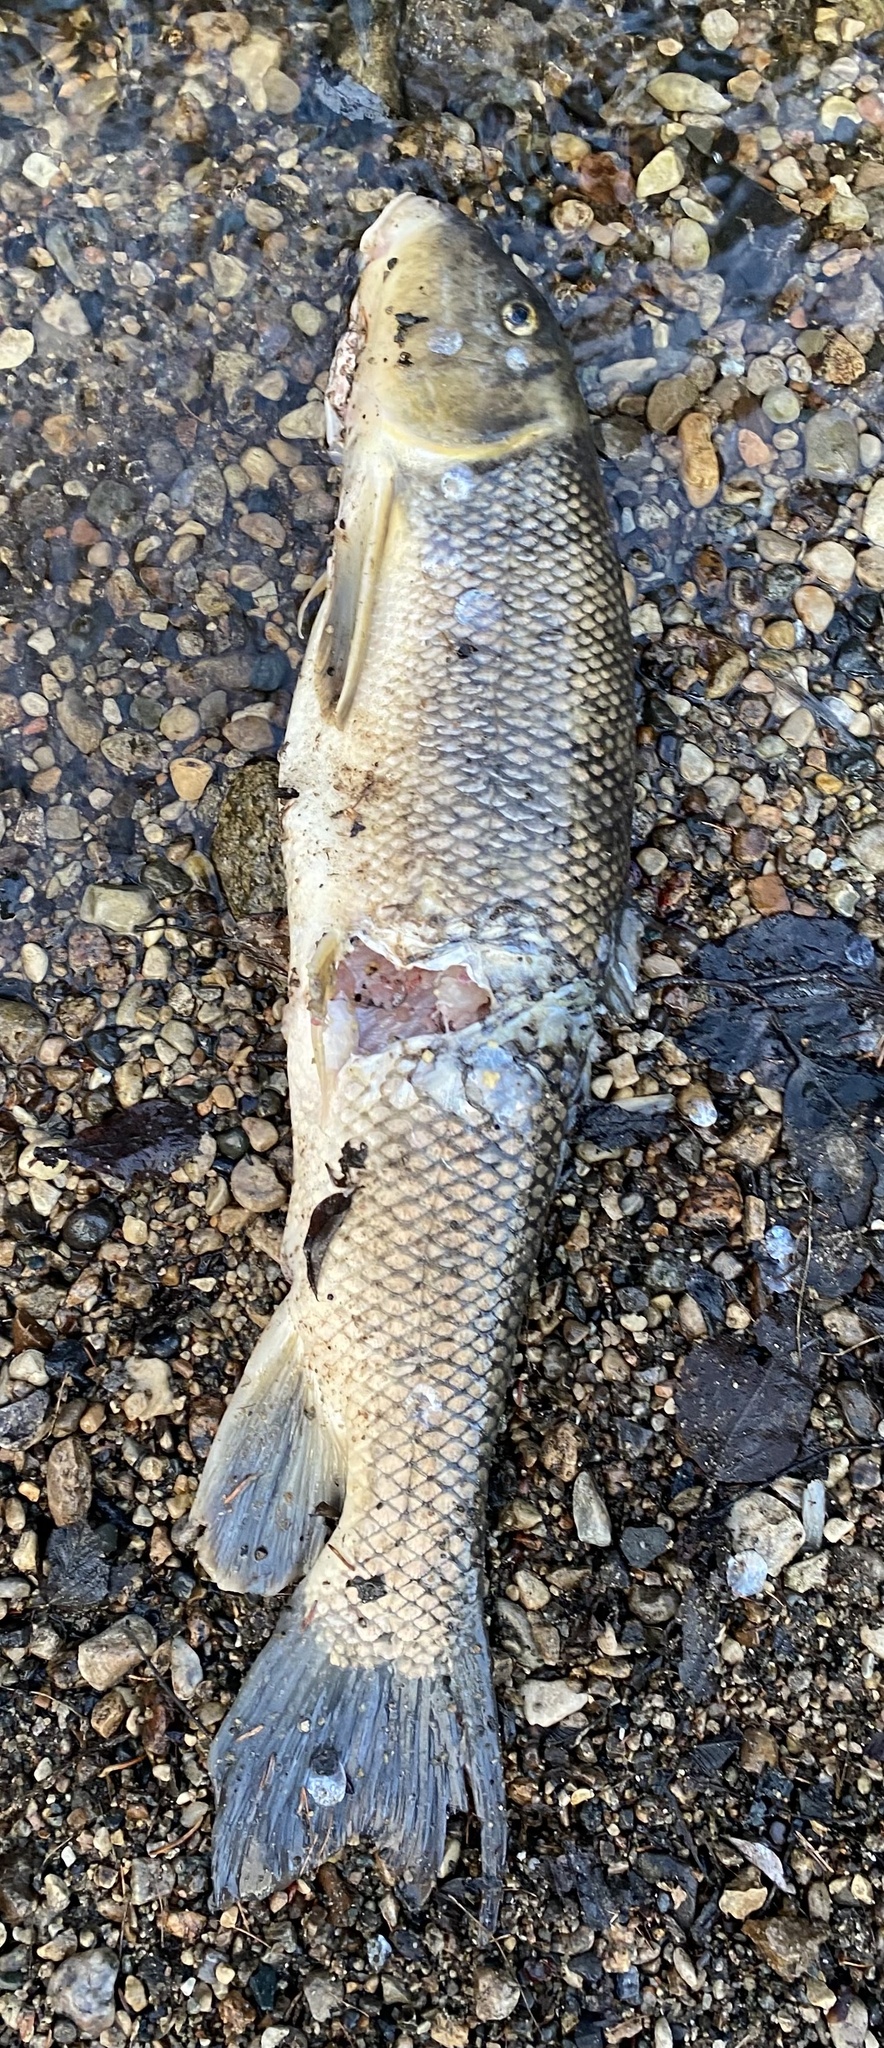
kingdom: Animalia
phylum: Chordata
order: Cypriniformes
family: Catostomidae
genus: Catostomus
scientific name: Catostomus commersonii
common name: White sucker
